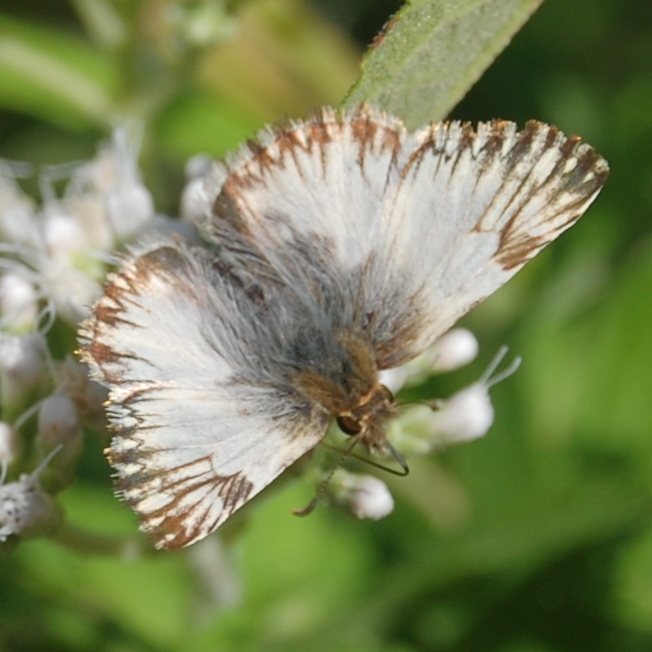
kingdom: Animalia
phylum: Arthropoda
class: Insecta
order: Lepidoptera
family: Hesperiidae
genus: Heliopetes
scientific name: Heliopetes omrina
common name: Stained white-skipper
